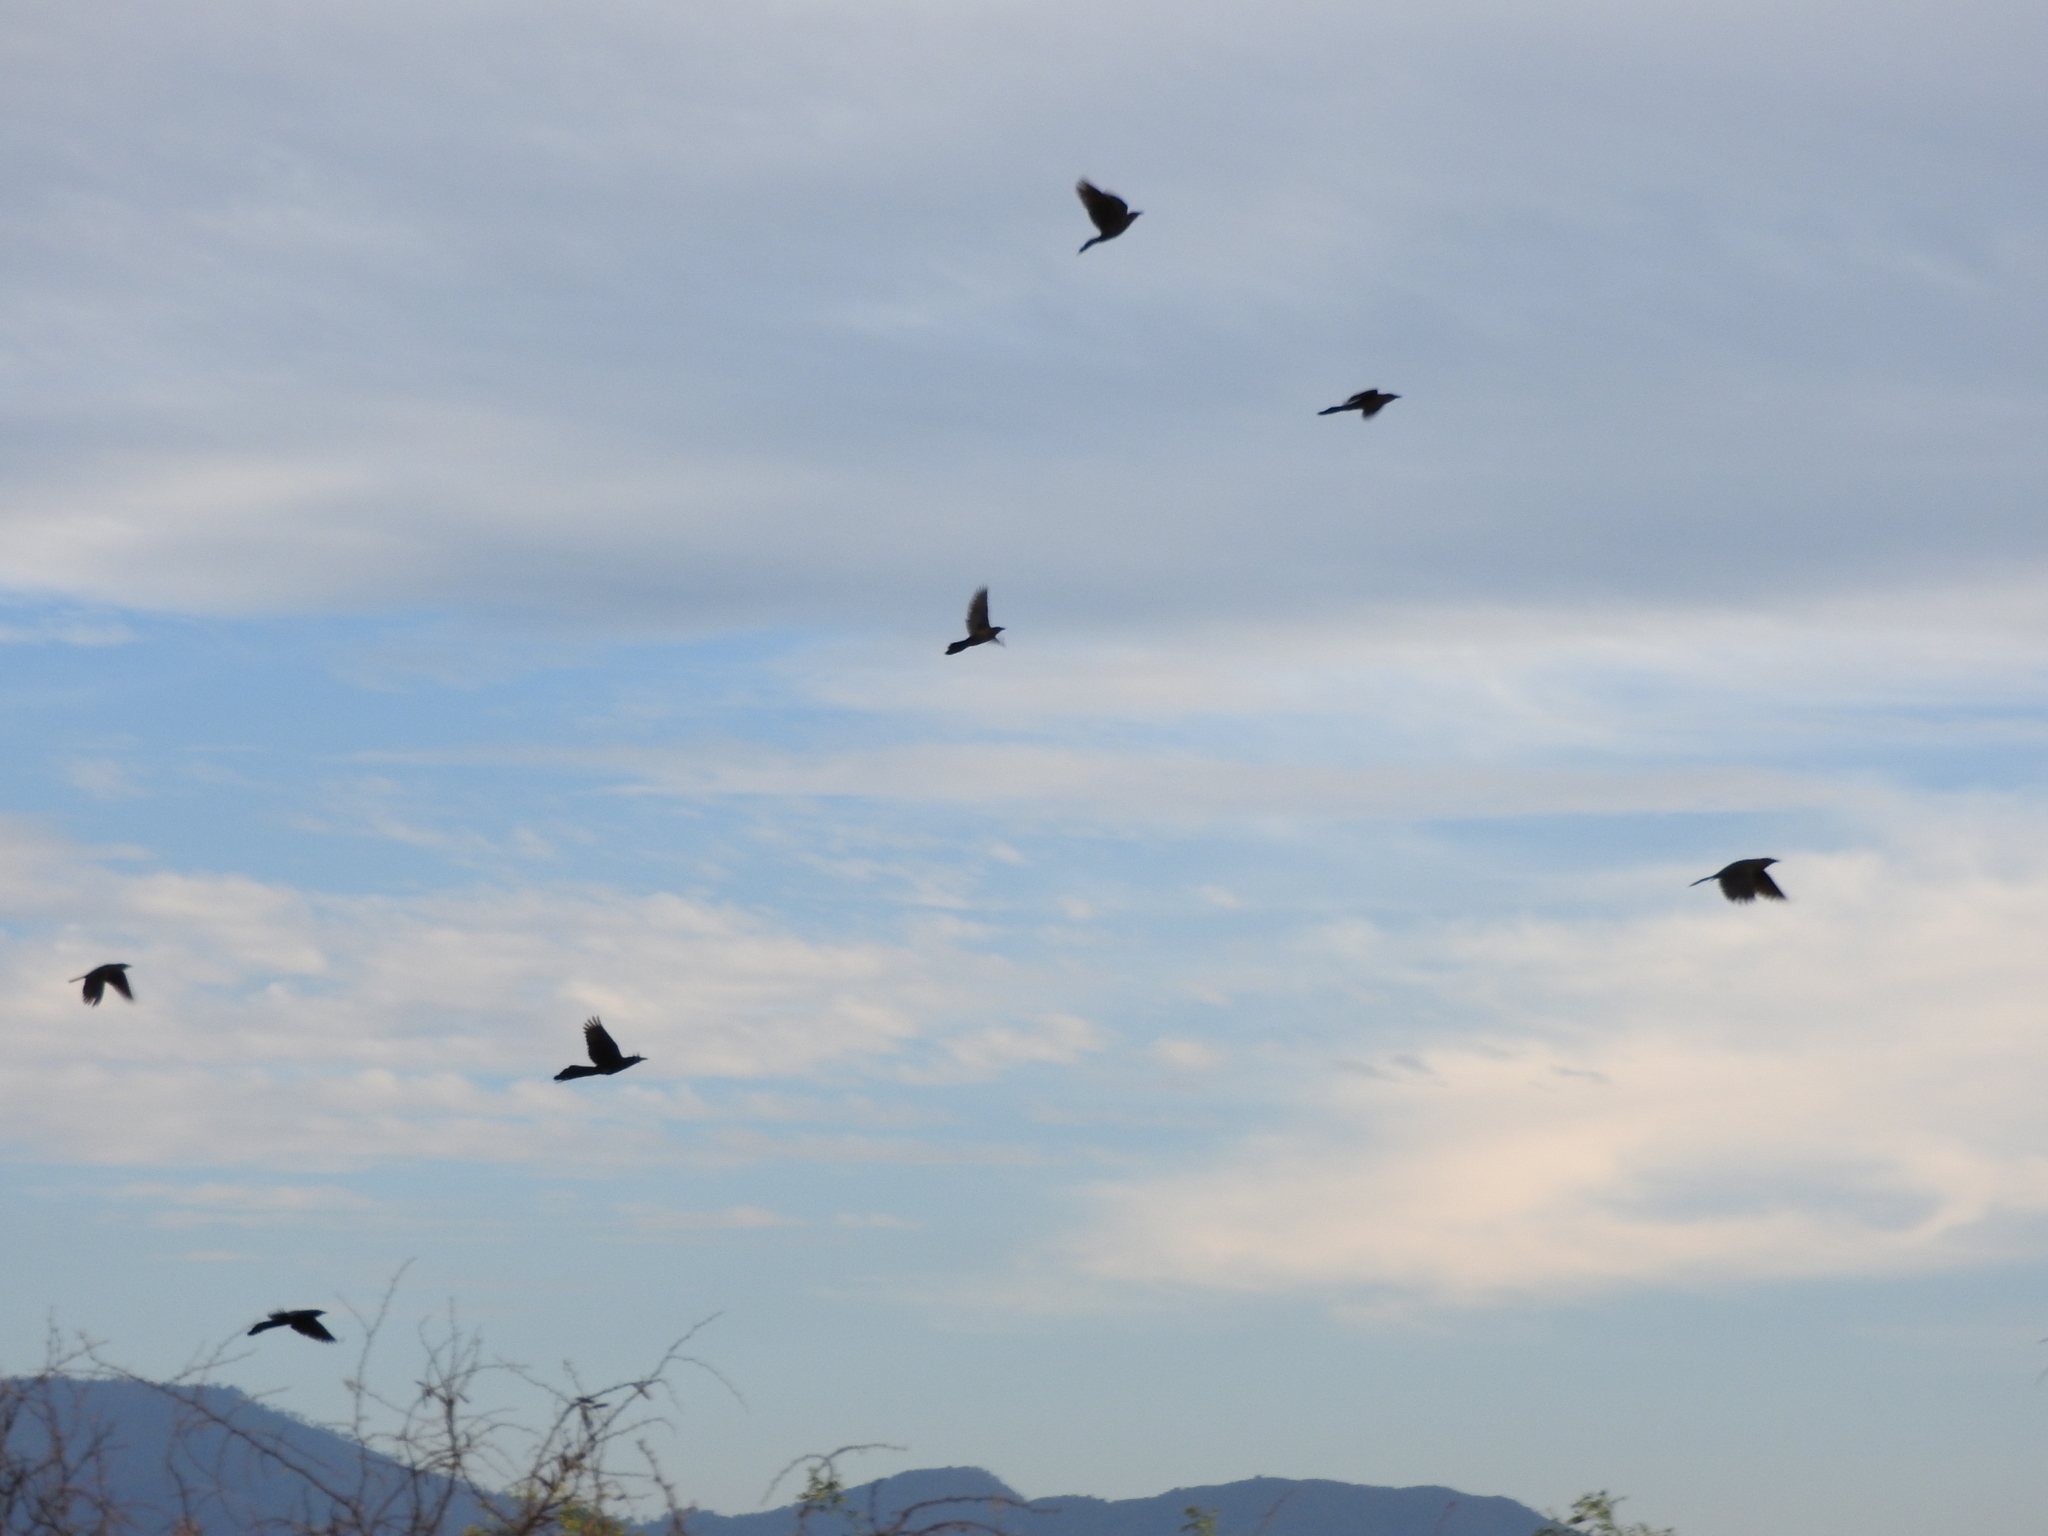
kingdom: Animalia
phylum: Chordata
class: Aves
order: Passeriformes
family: Icteridae
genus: Quiscalus
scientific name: Quiscalus mexicanus
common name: Great-tailed grackle
